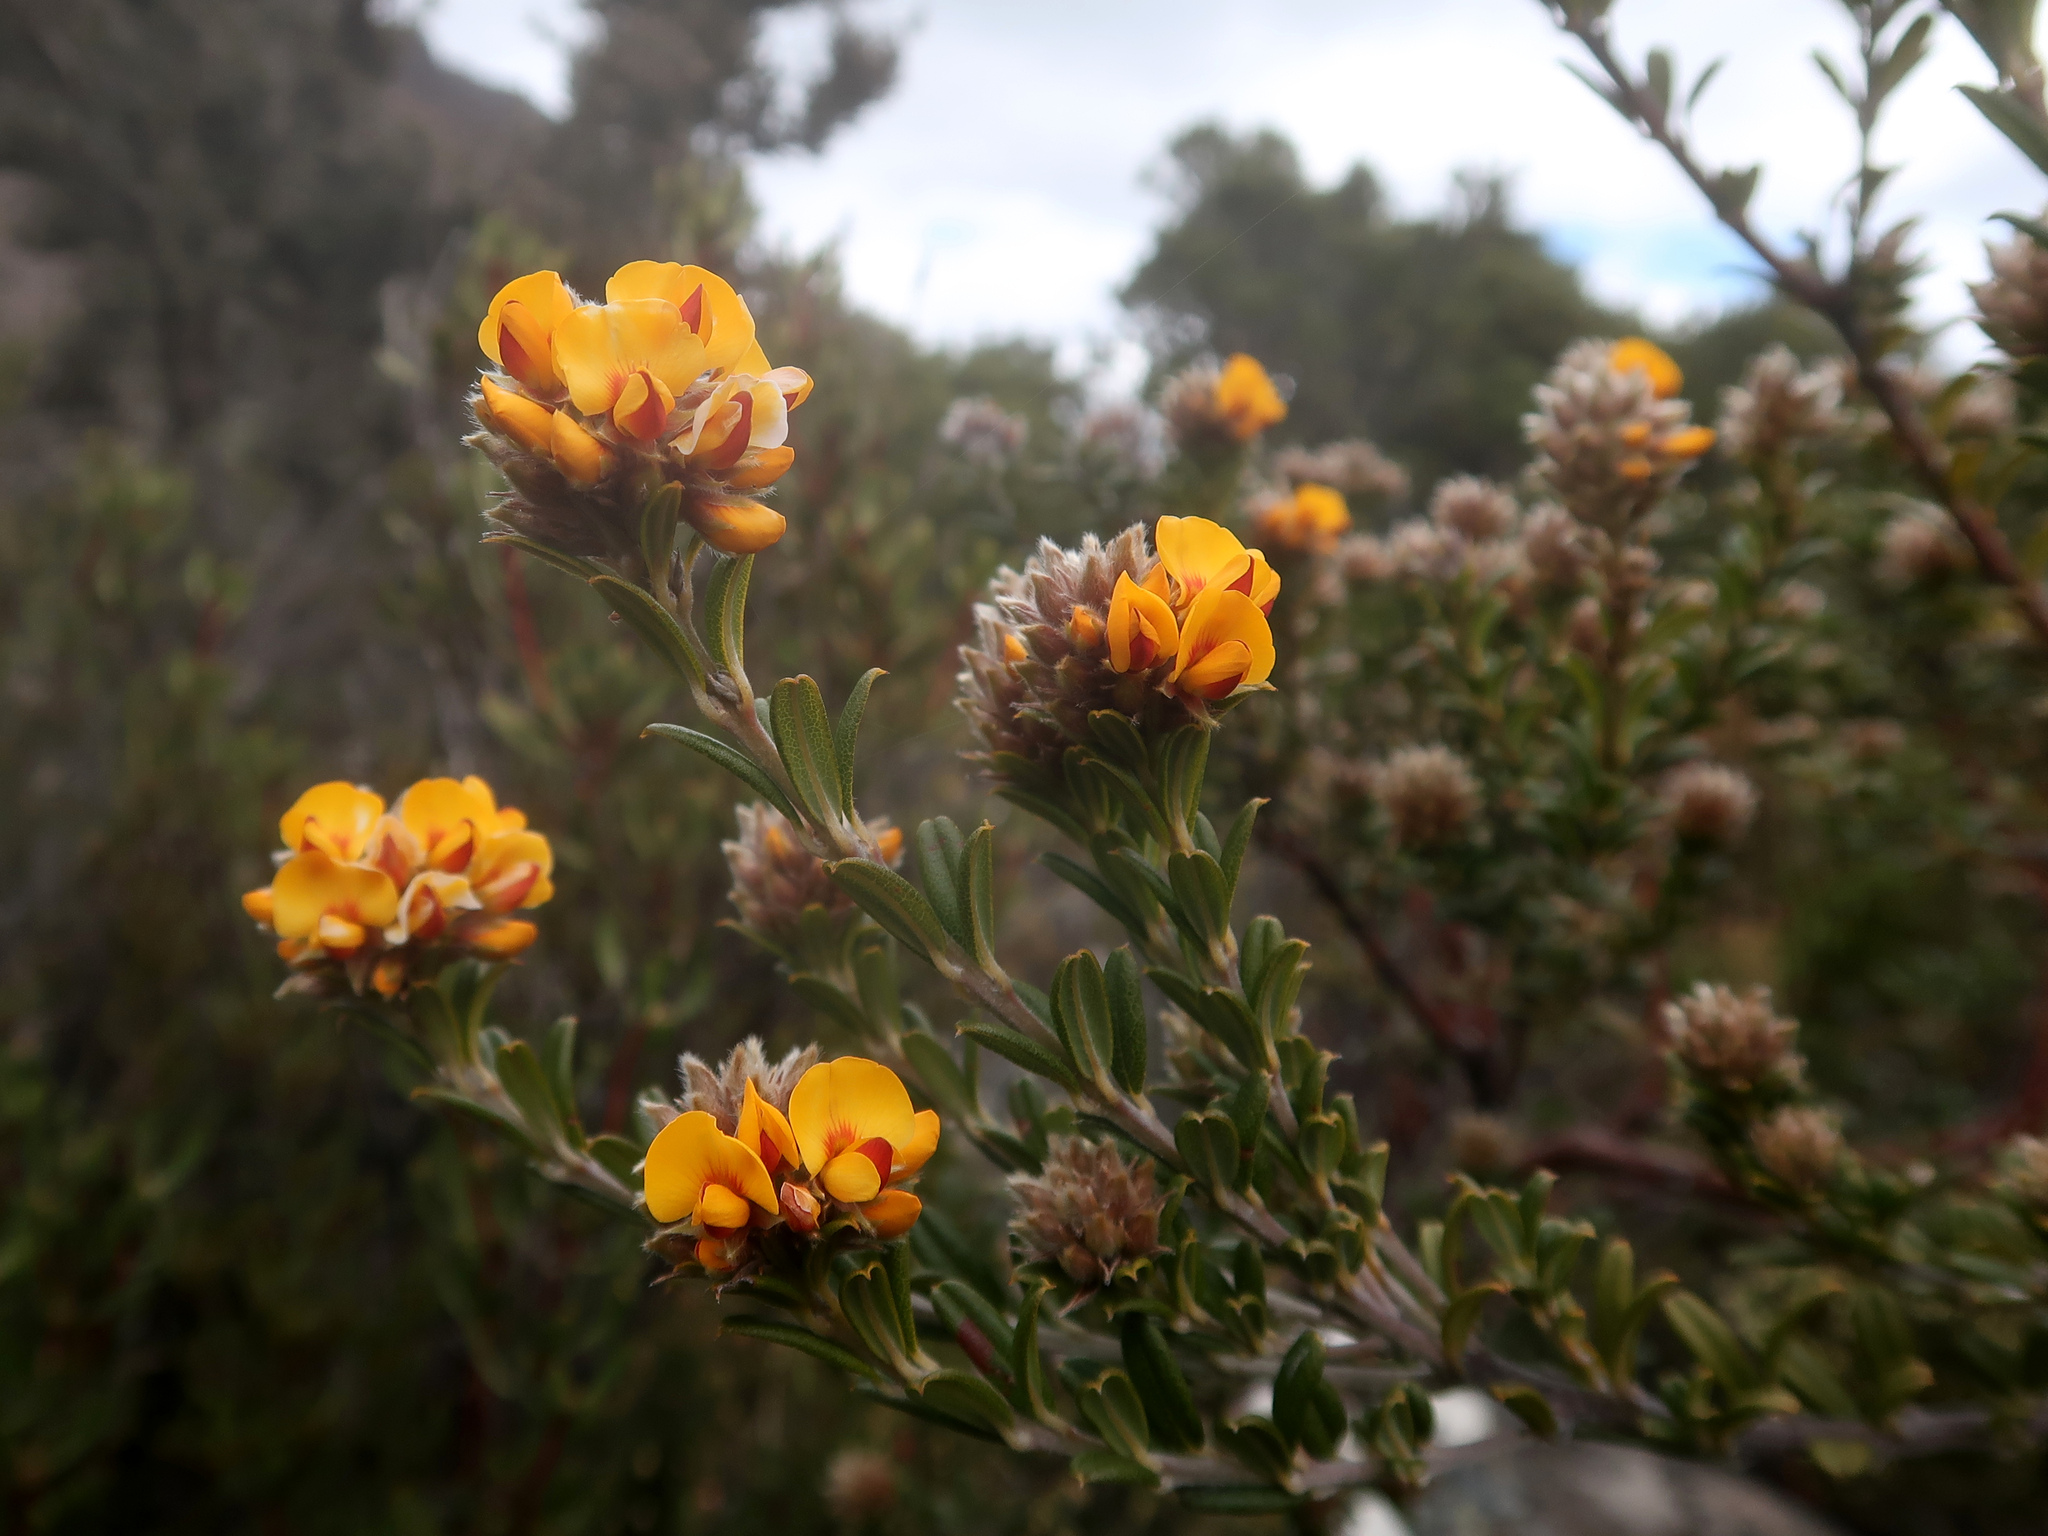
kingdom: Plantae
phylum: Tracheophyta
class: Magnoliopsida
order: Fabales
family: Fabaceae
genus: Oxylobium
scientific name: Oxylobium ellipticum
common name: Golden shaggy-pea
